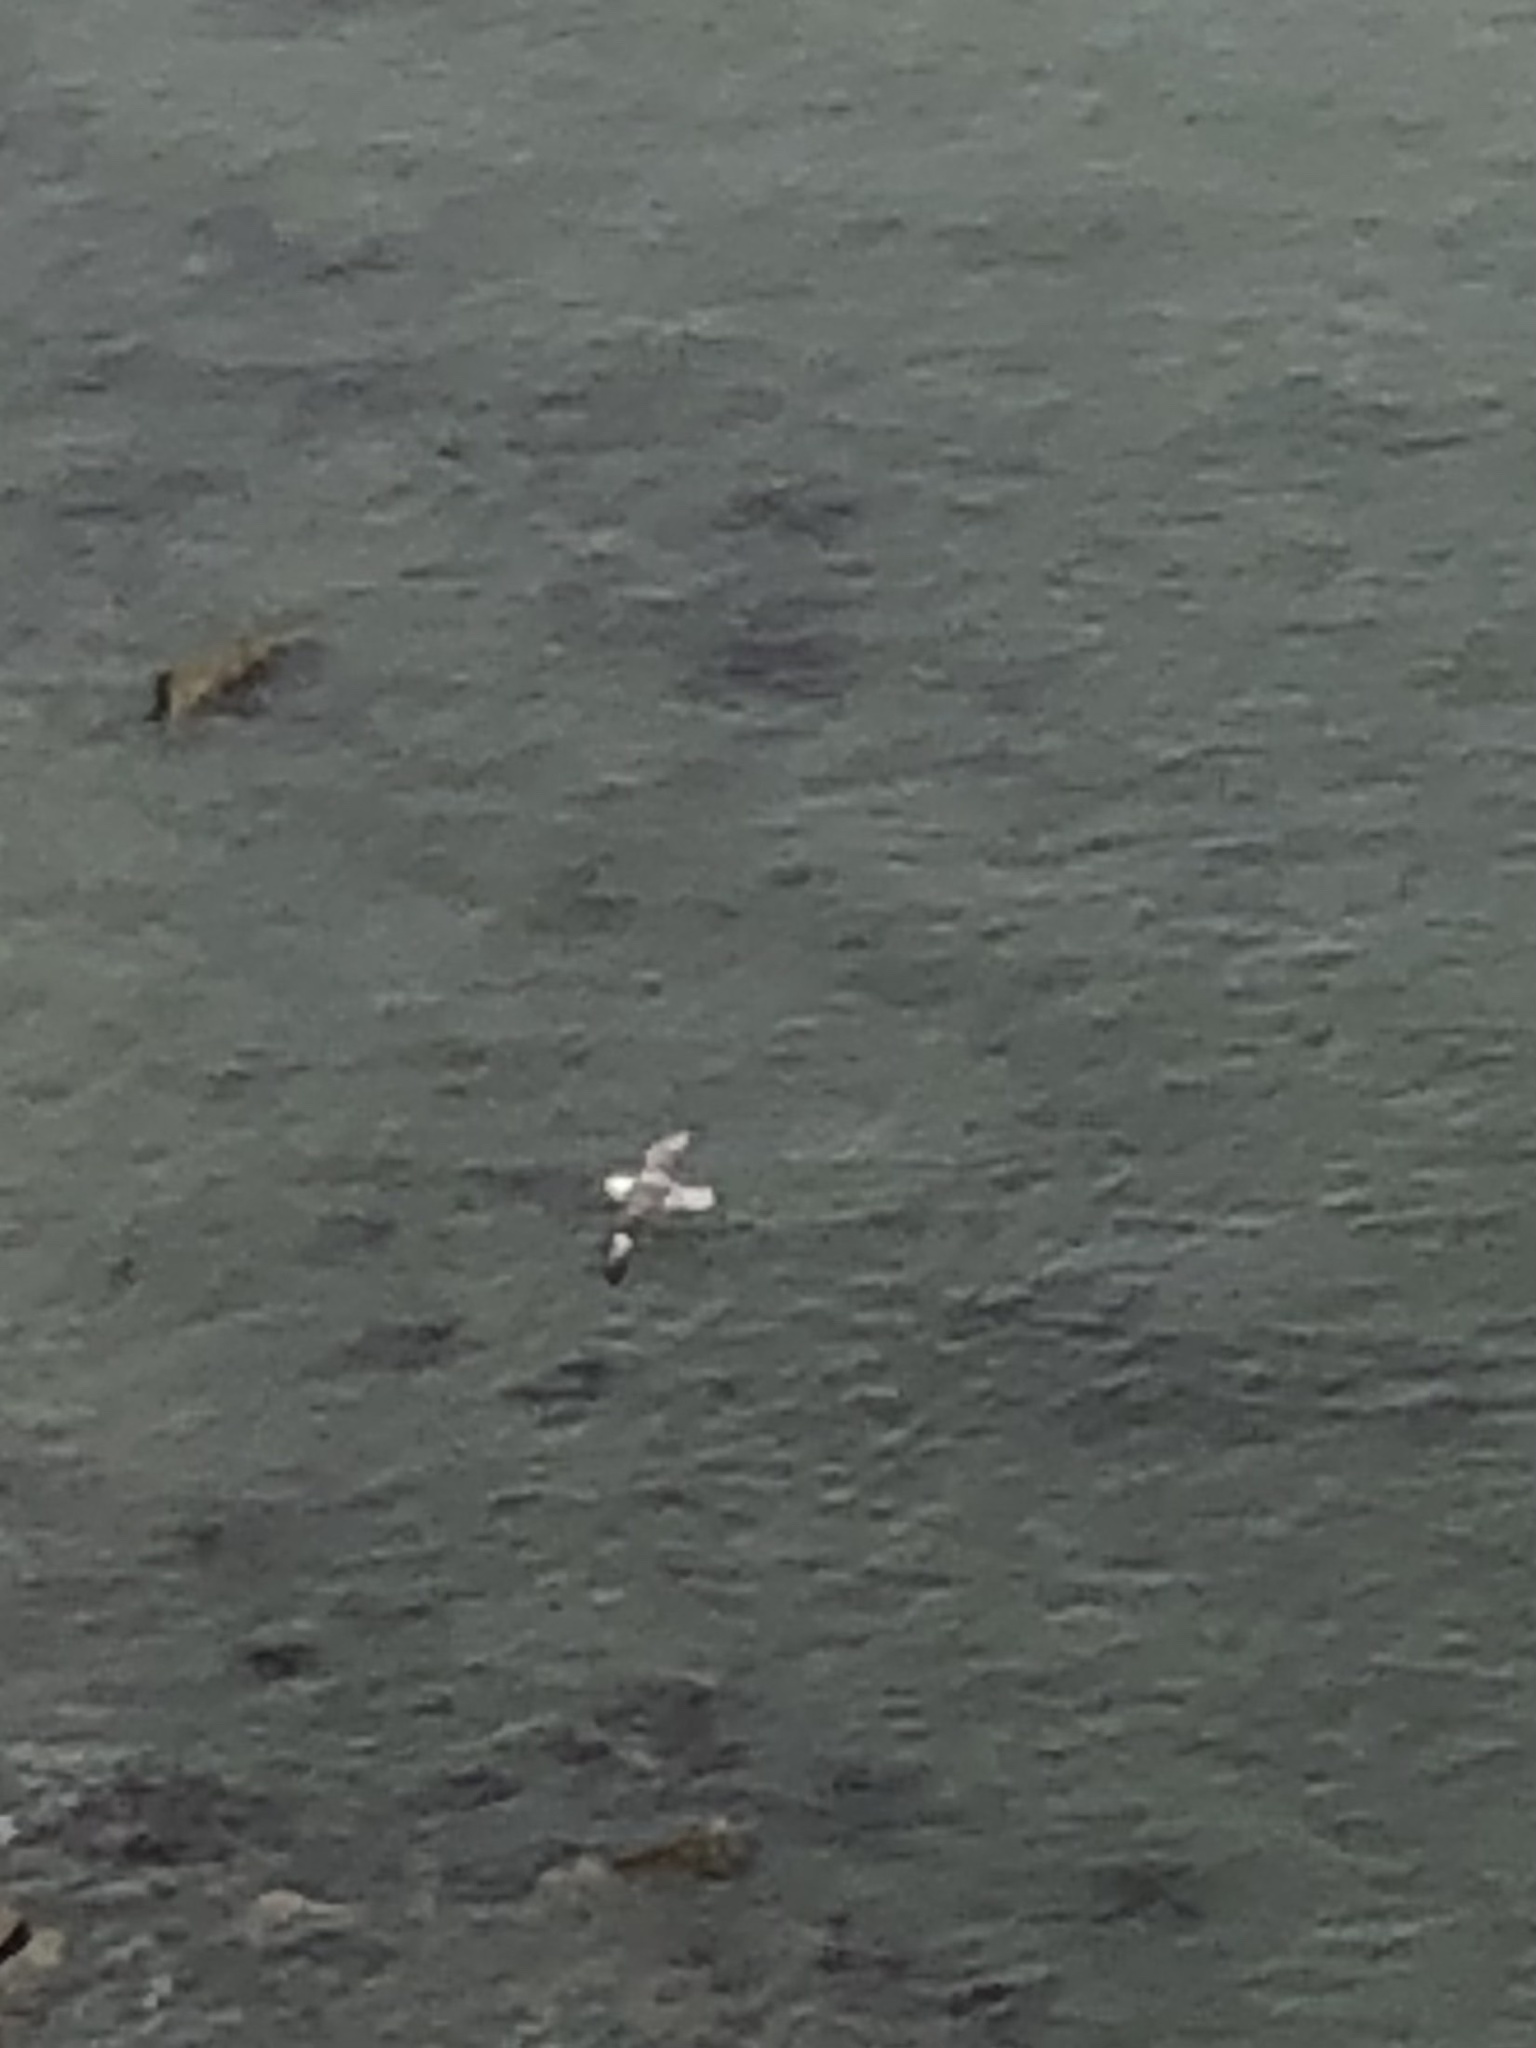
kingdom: Animalia
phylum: Chordata
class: Aves
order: Procellariiformes
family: Procellariidae
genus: Fulmarus
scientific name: Fulmarus glacialis
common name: Northern fulmar
